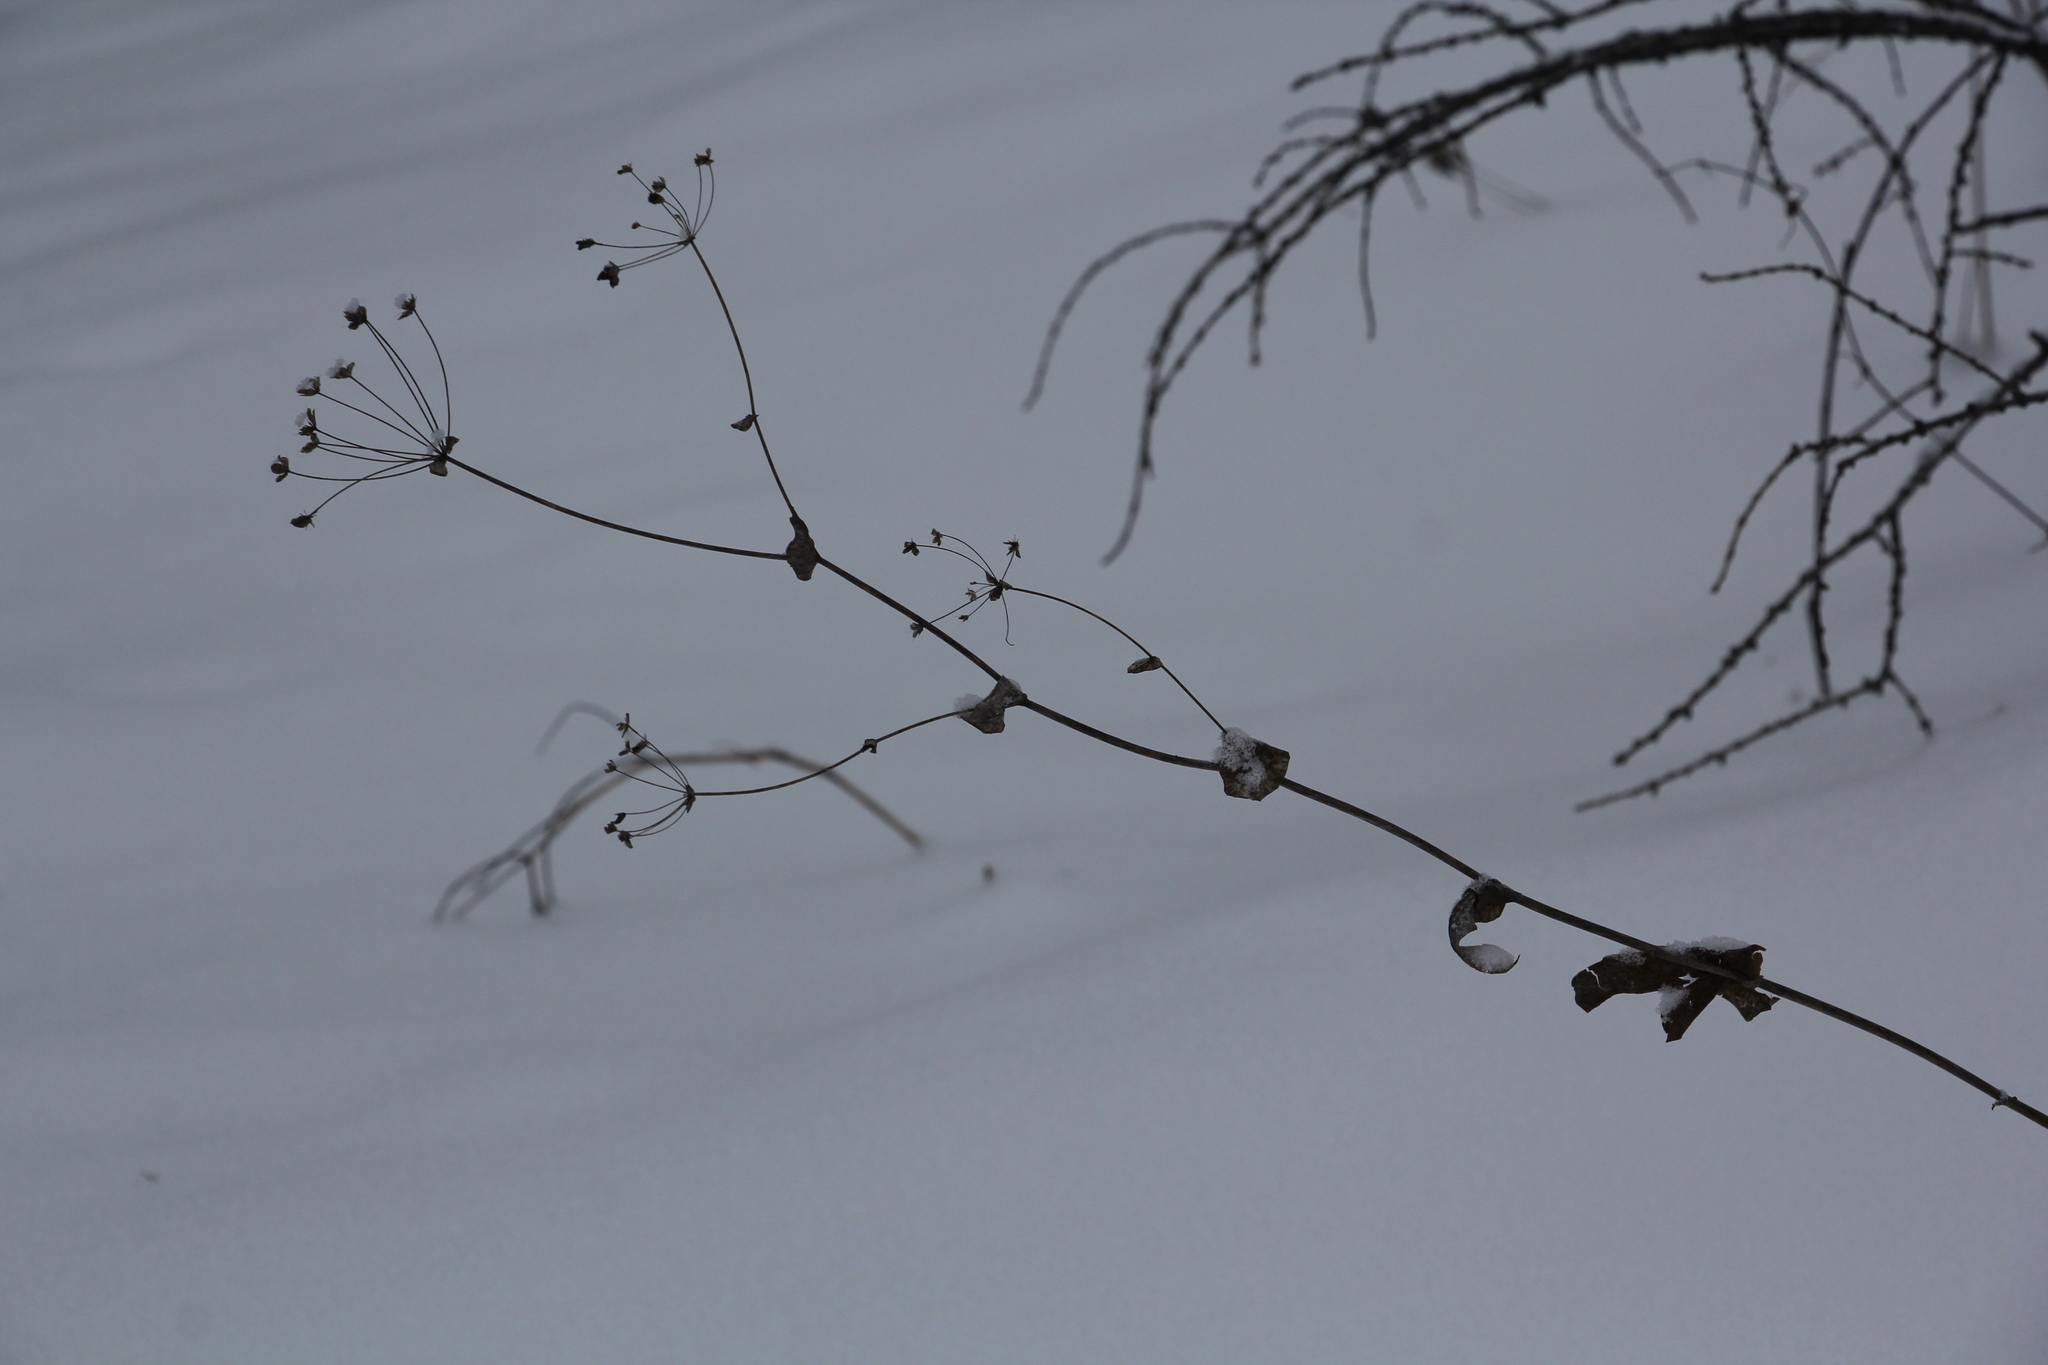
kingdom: Plantae
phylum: Tracheophyta
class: Magnoliopsida
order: Apiales
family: Apiaceae
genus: Bupleurum
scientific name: Bupleurum aureum
